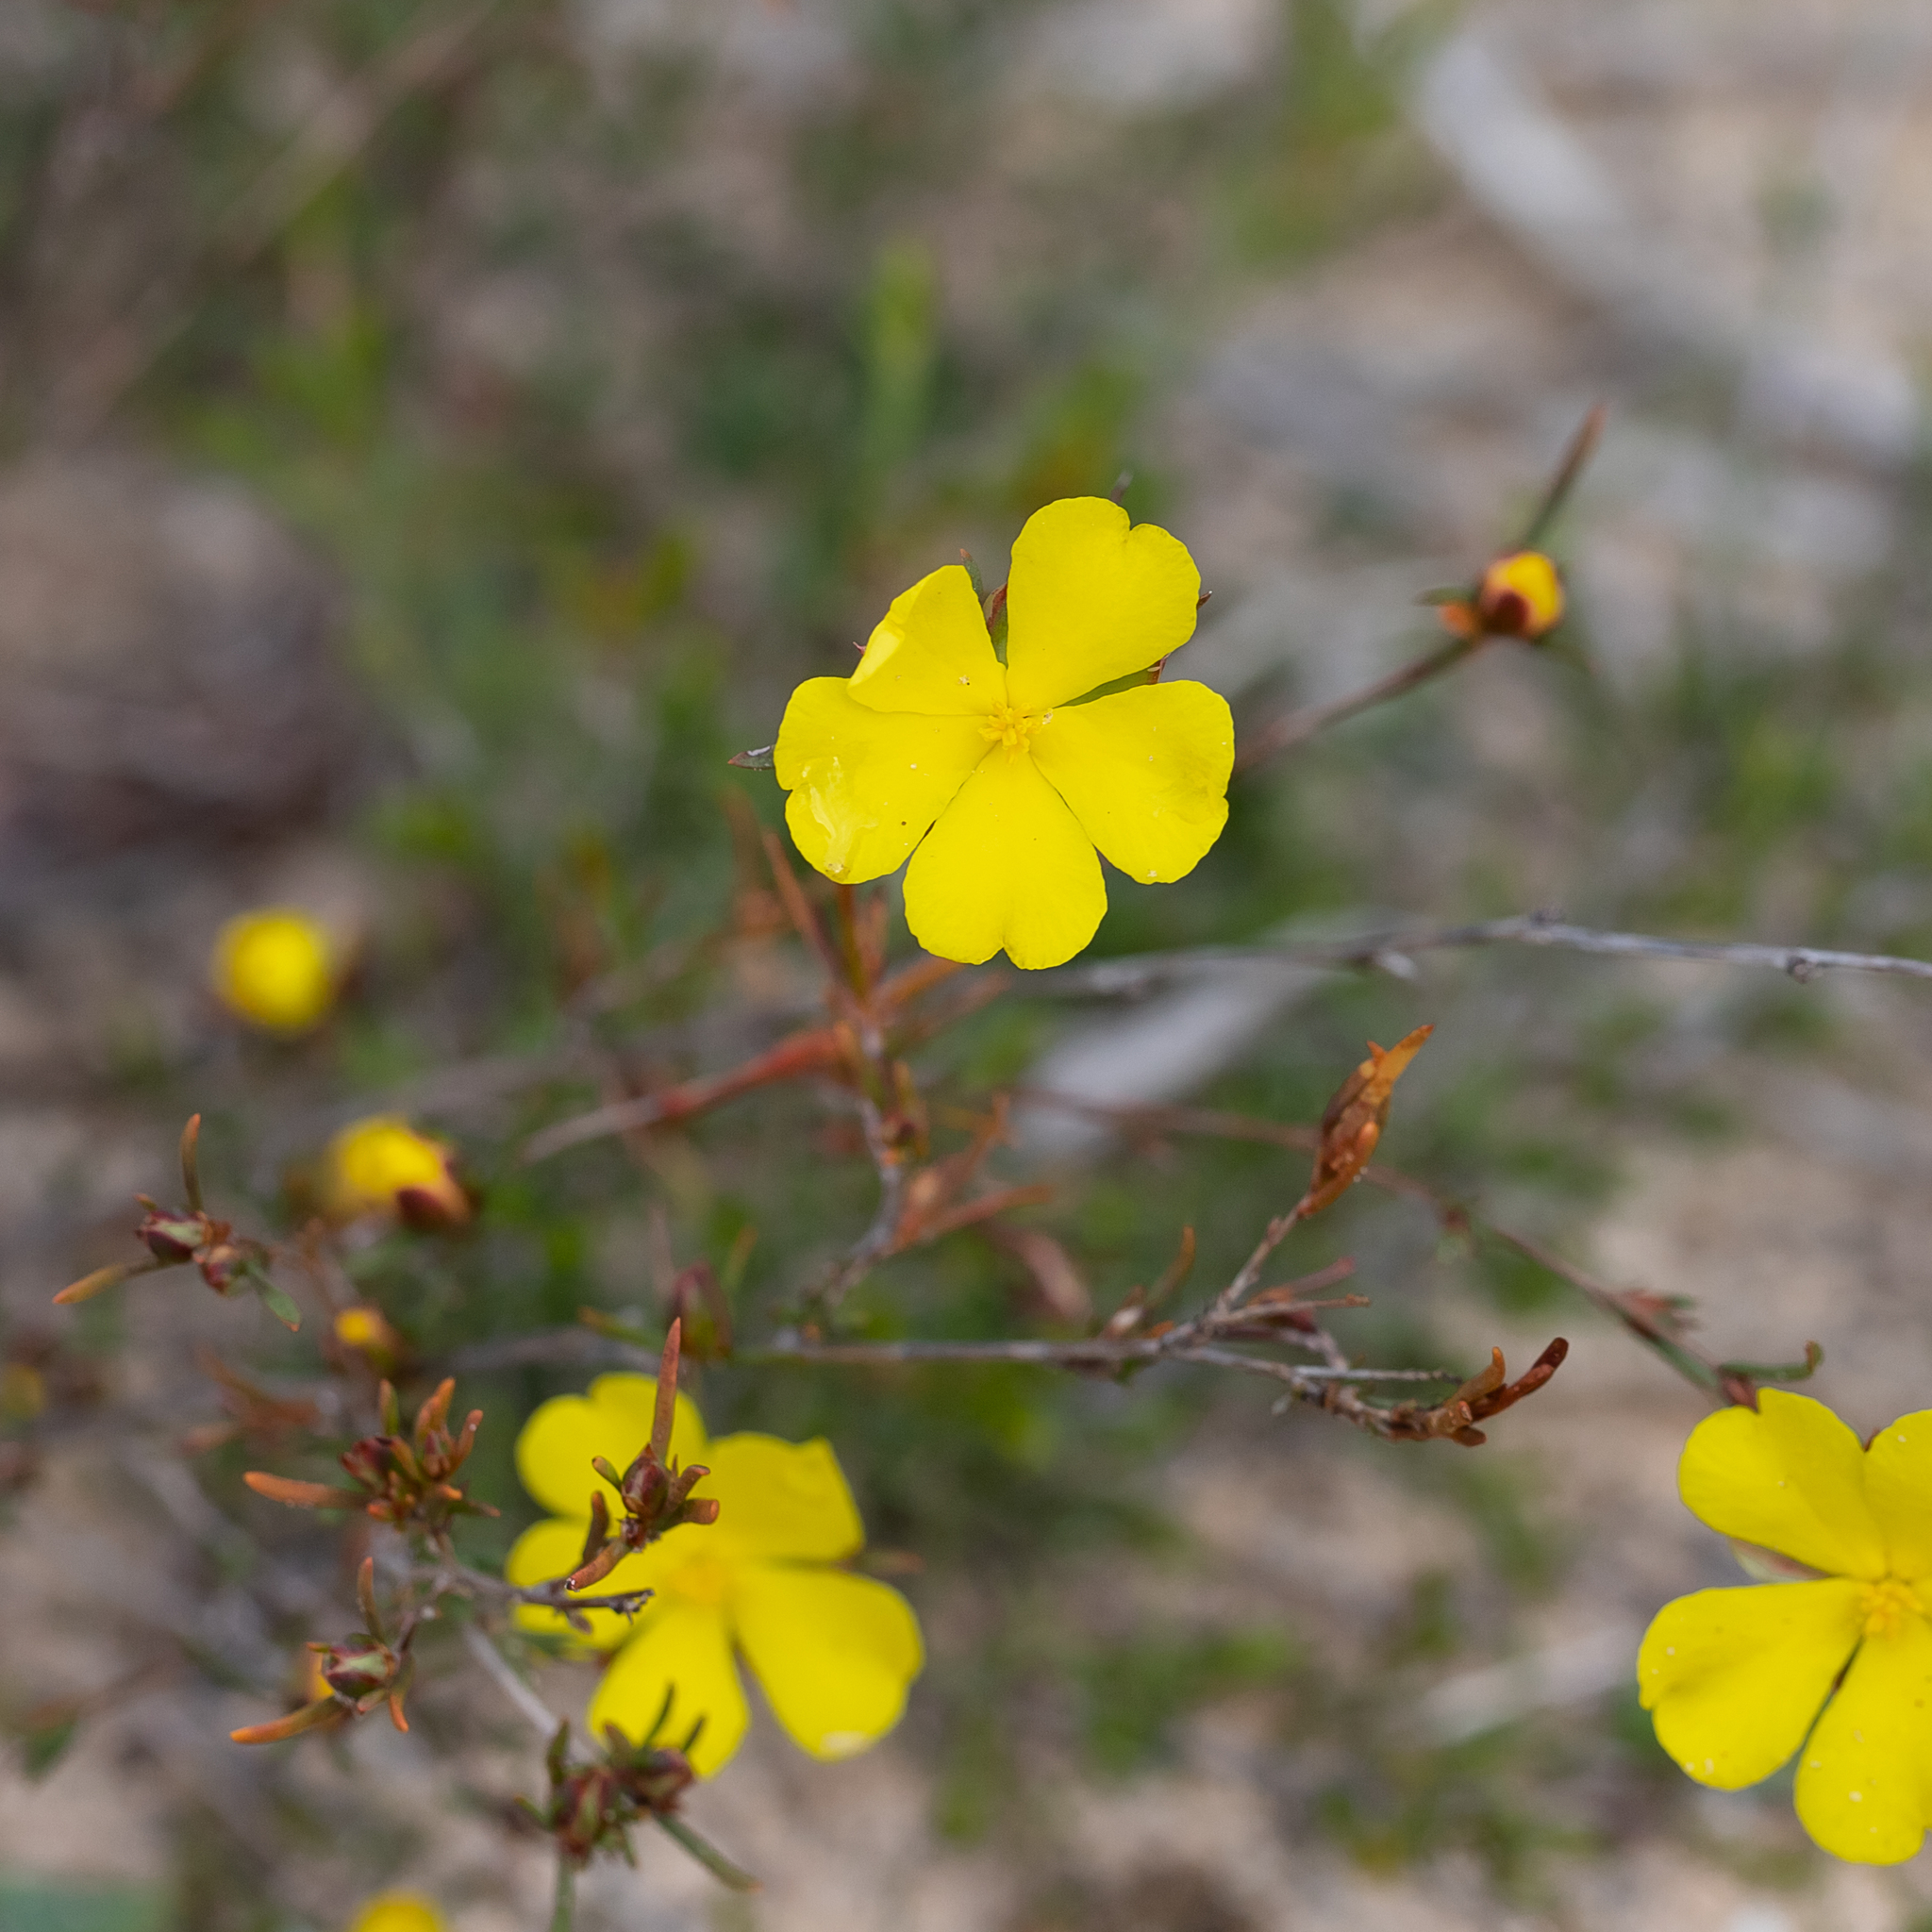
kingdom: Plantae
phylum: Tracheophyta
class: Magnoliopsida
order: Dilleniales
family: Dilleniaceae
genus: Hibbertia
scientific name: Hibbertia virgata
